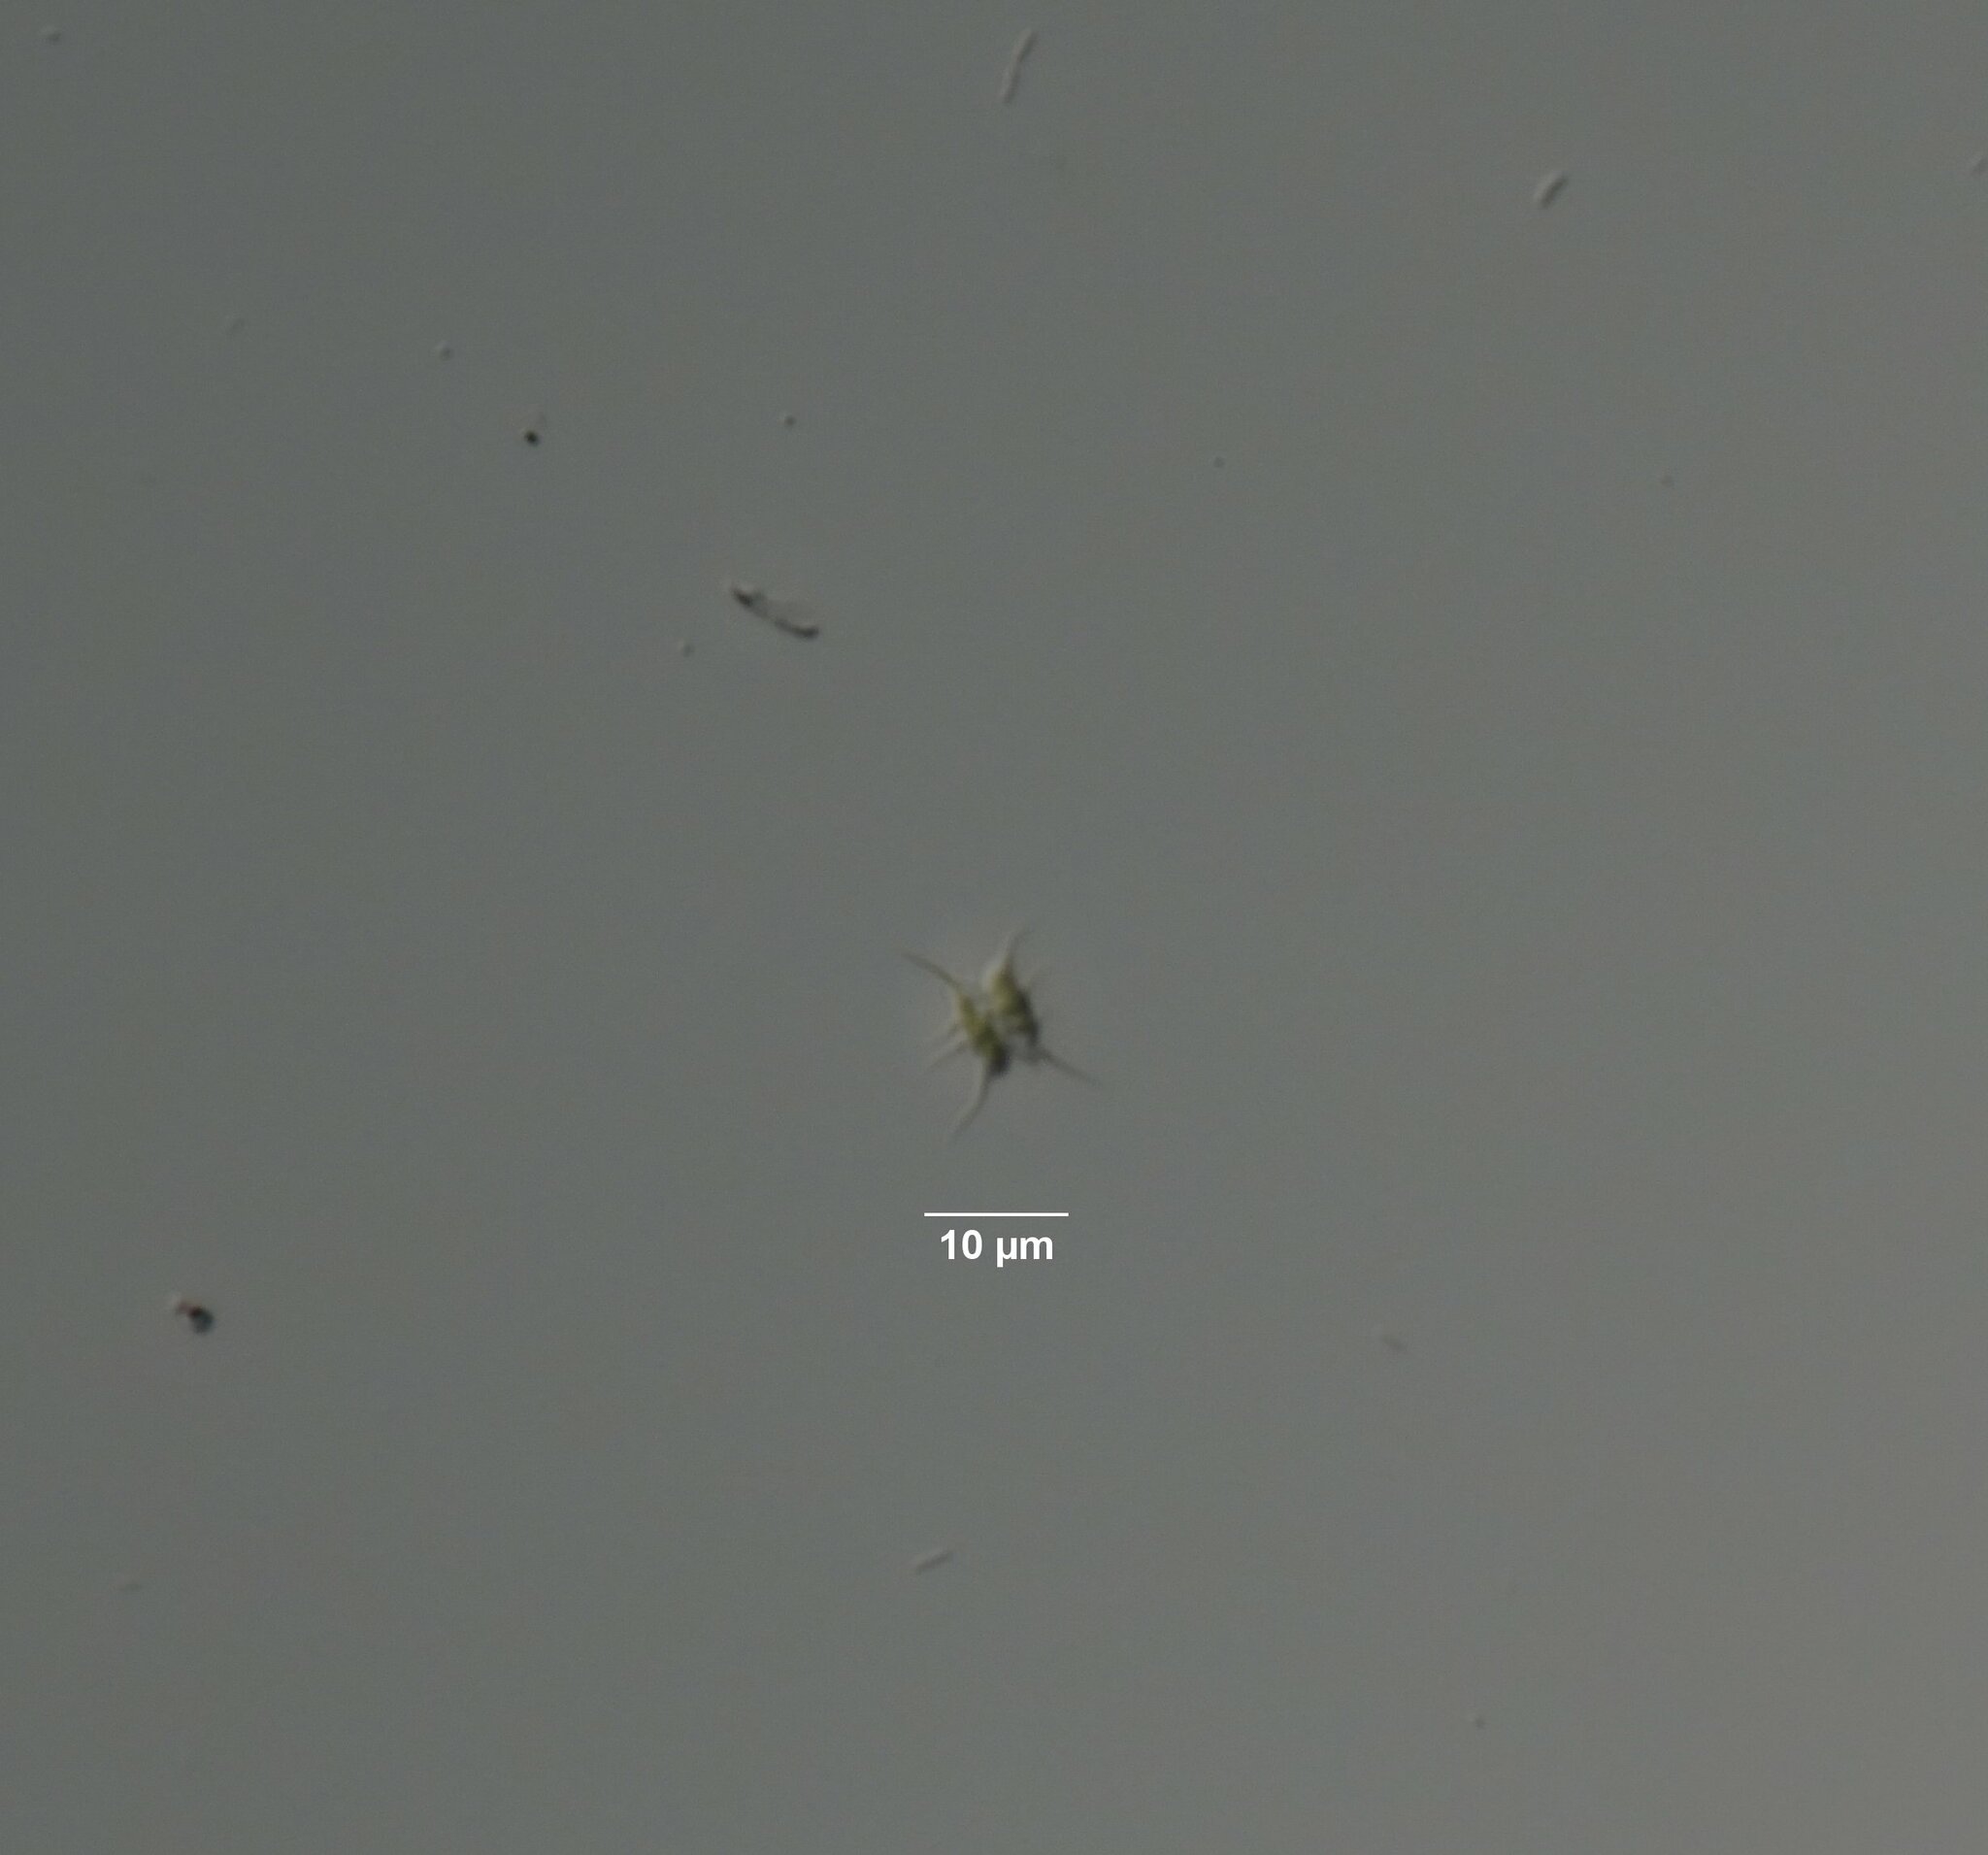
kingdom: Plantae
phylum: Chlorophyta
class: Chlorophyceae
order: Sphaeropleales
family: Scenedesmaceae
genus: Desmodesmus
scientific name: Desmodesmus spinosus
